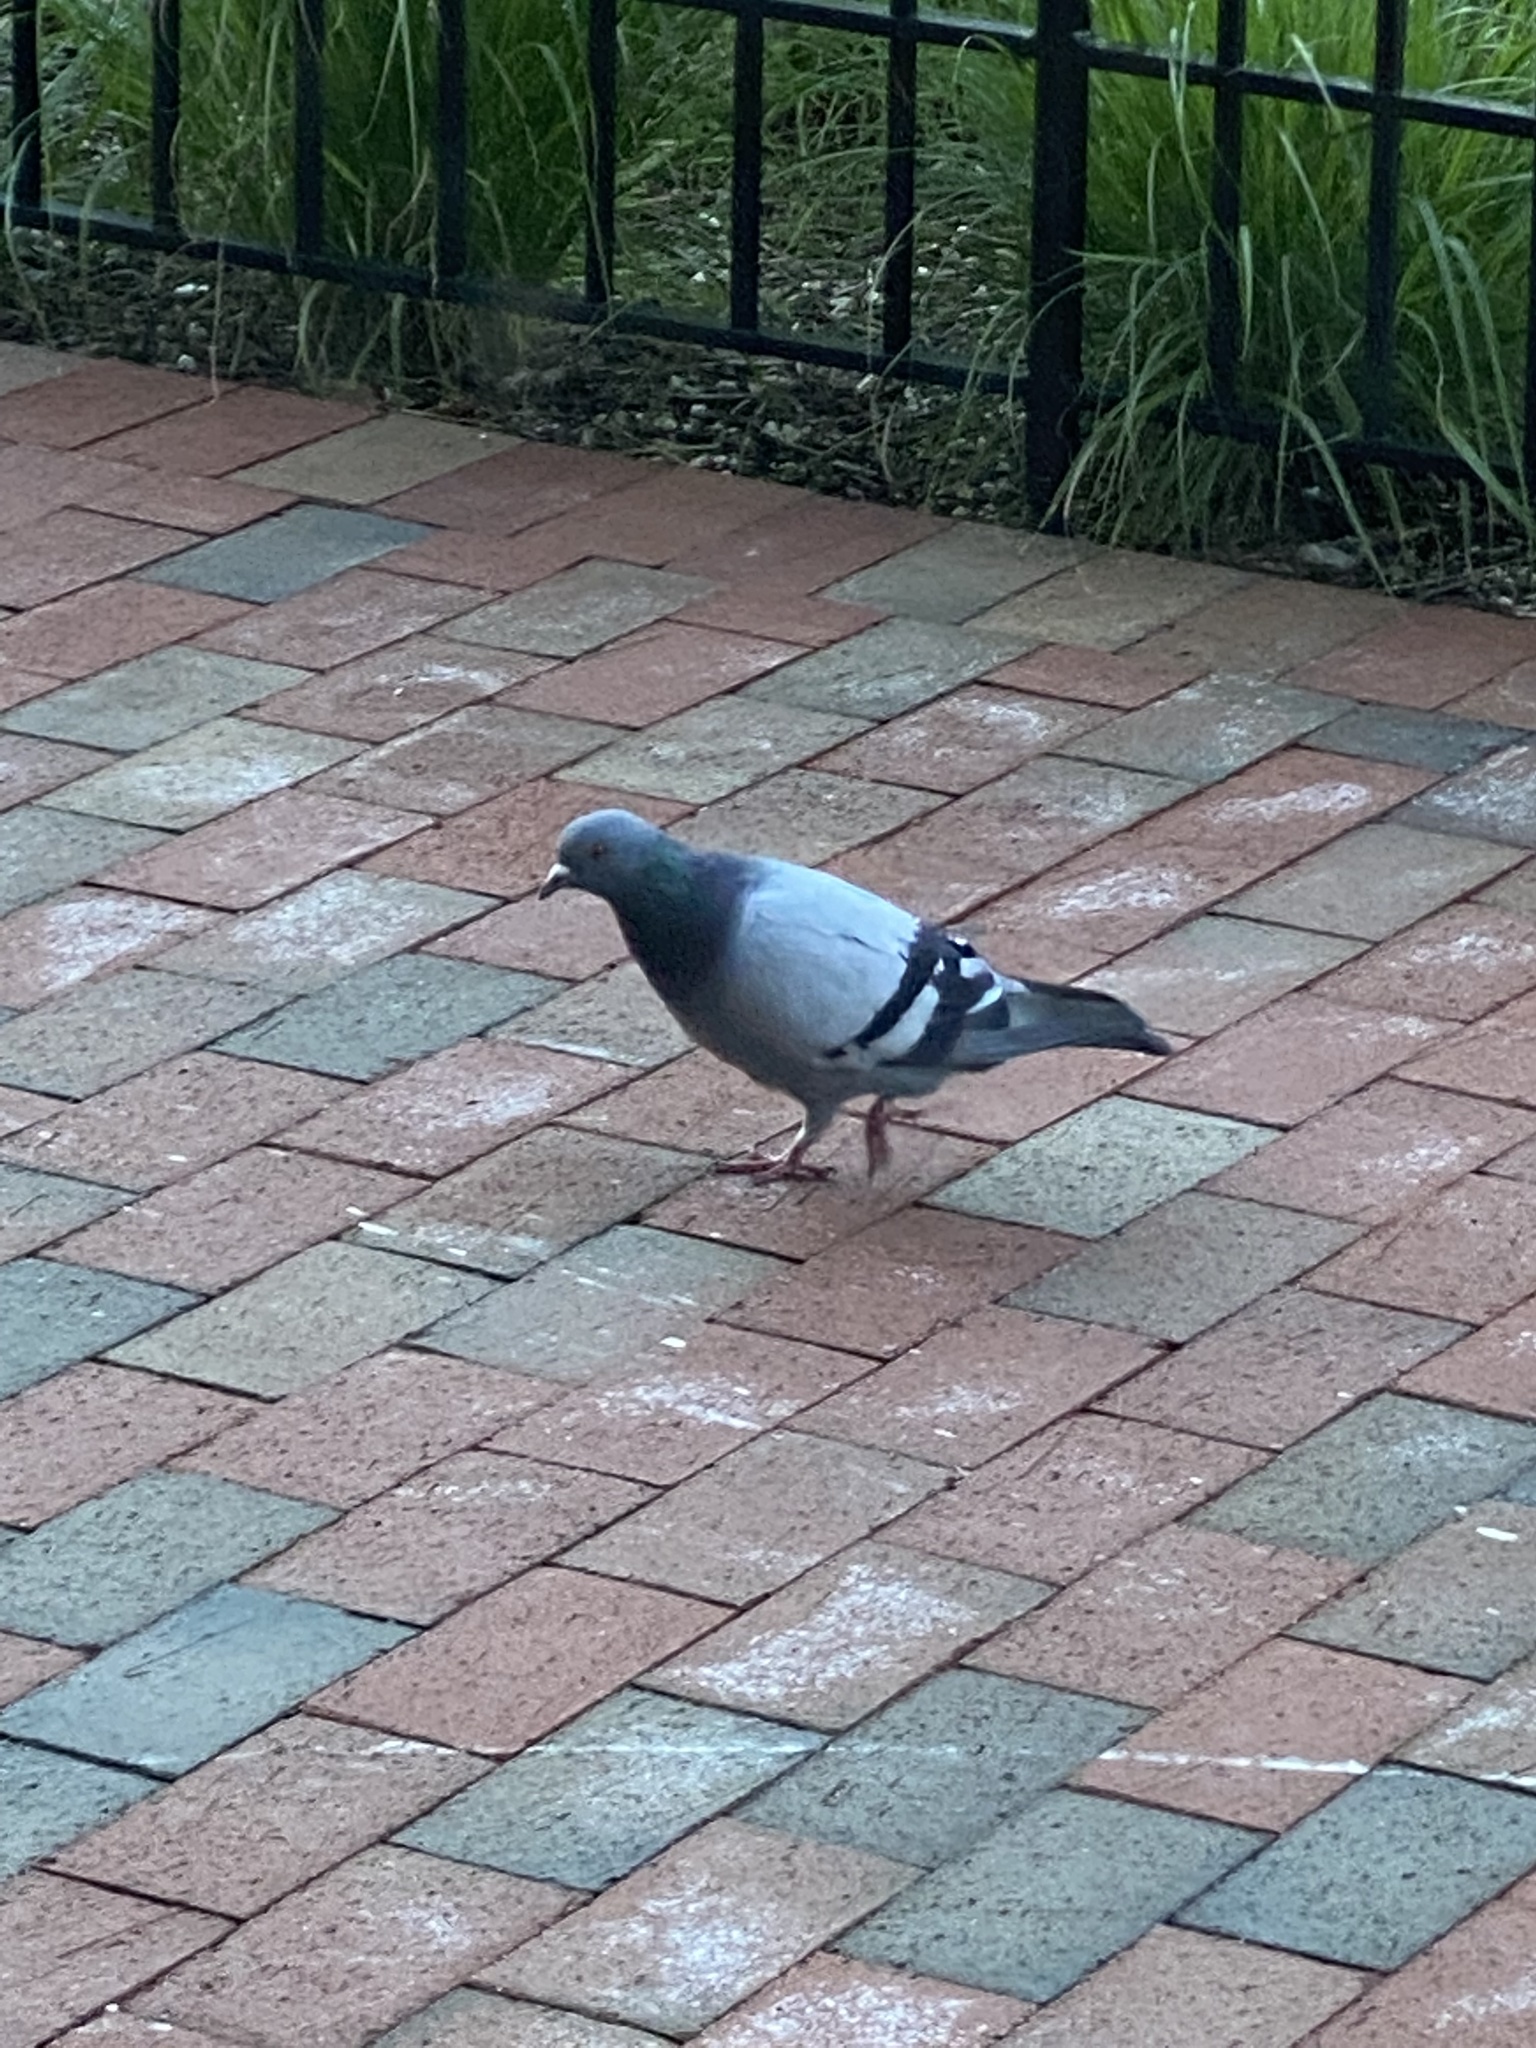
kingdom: Animalia
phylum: Chordata
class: Aves
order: Columbiformes
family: Columbidae
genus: Columba
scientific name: Columba livia
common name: Rock pigeon
